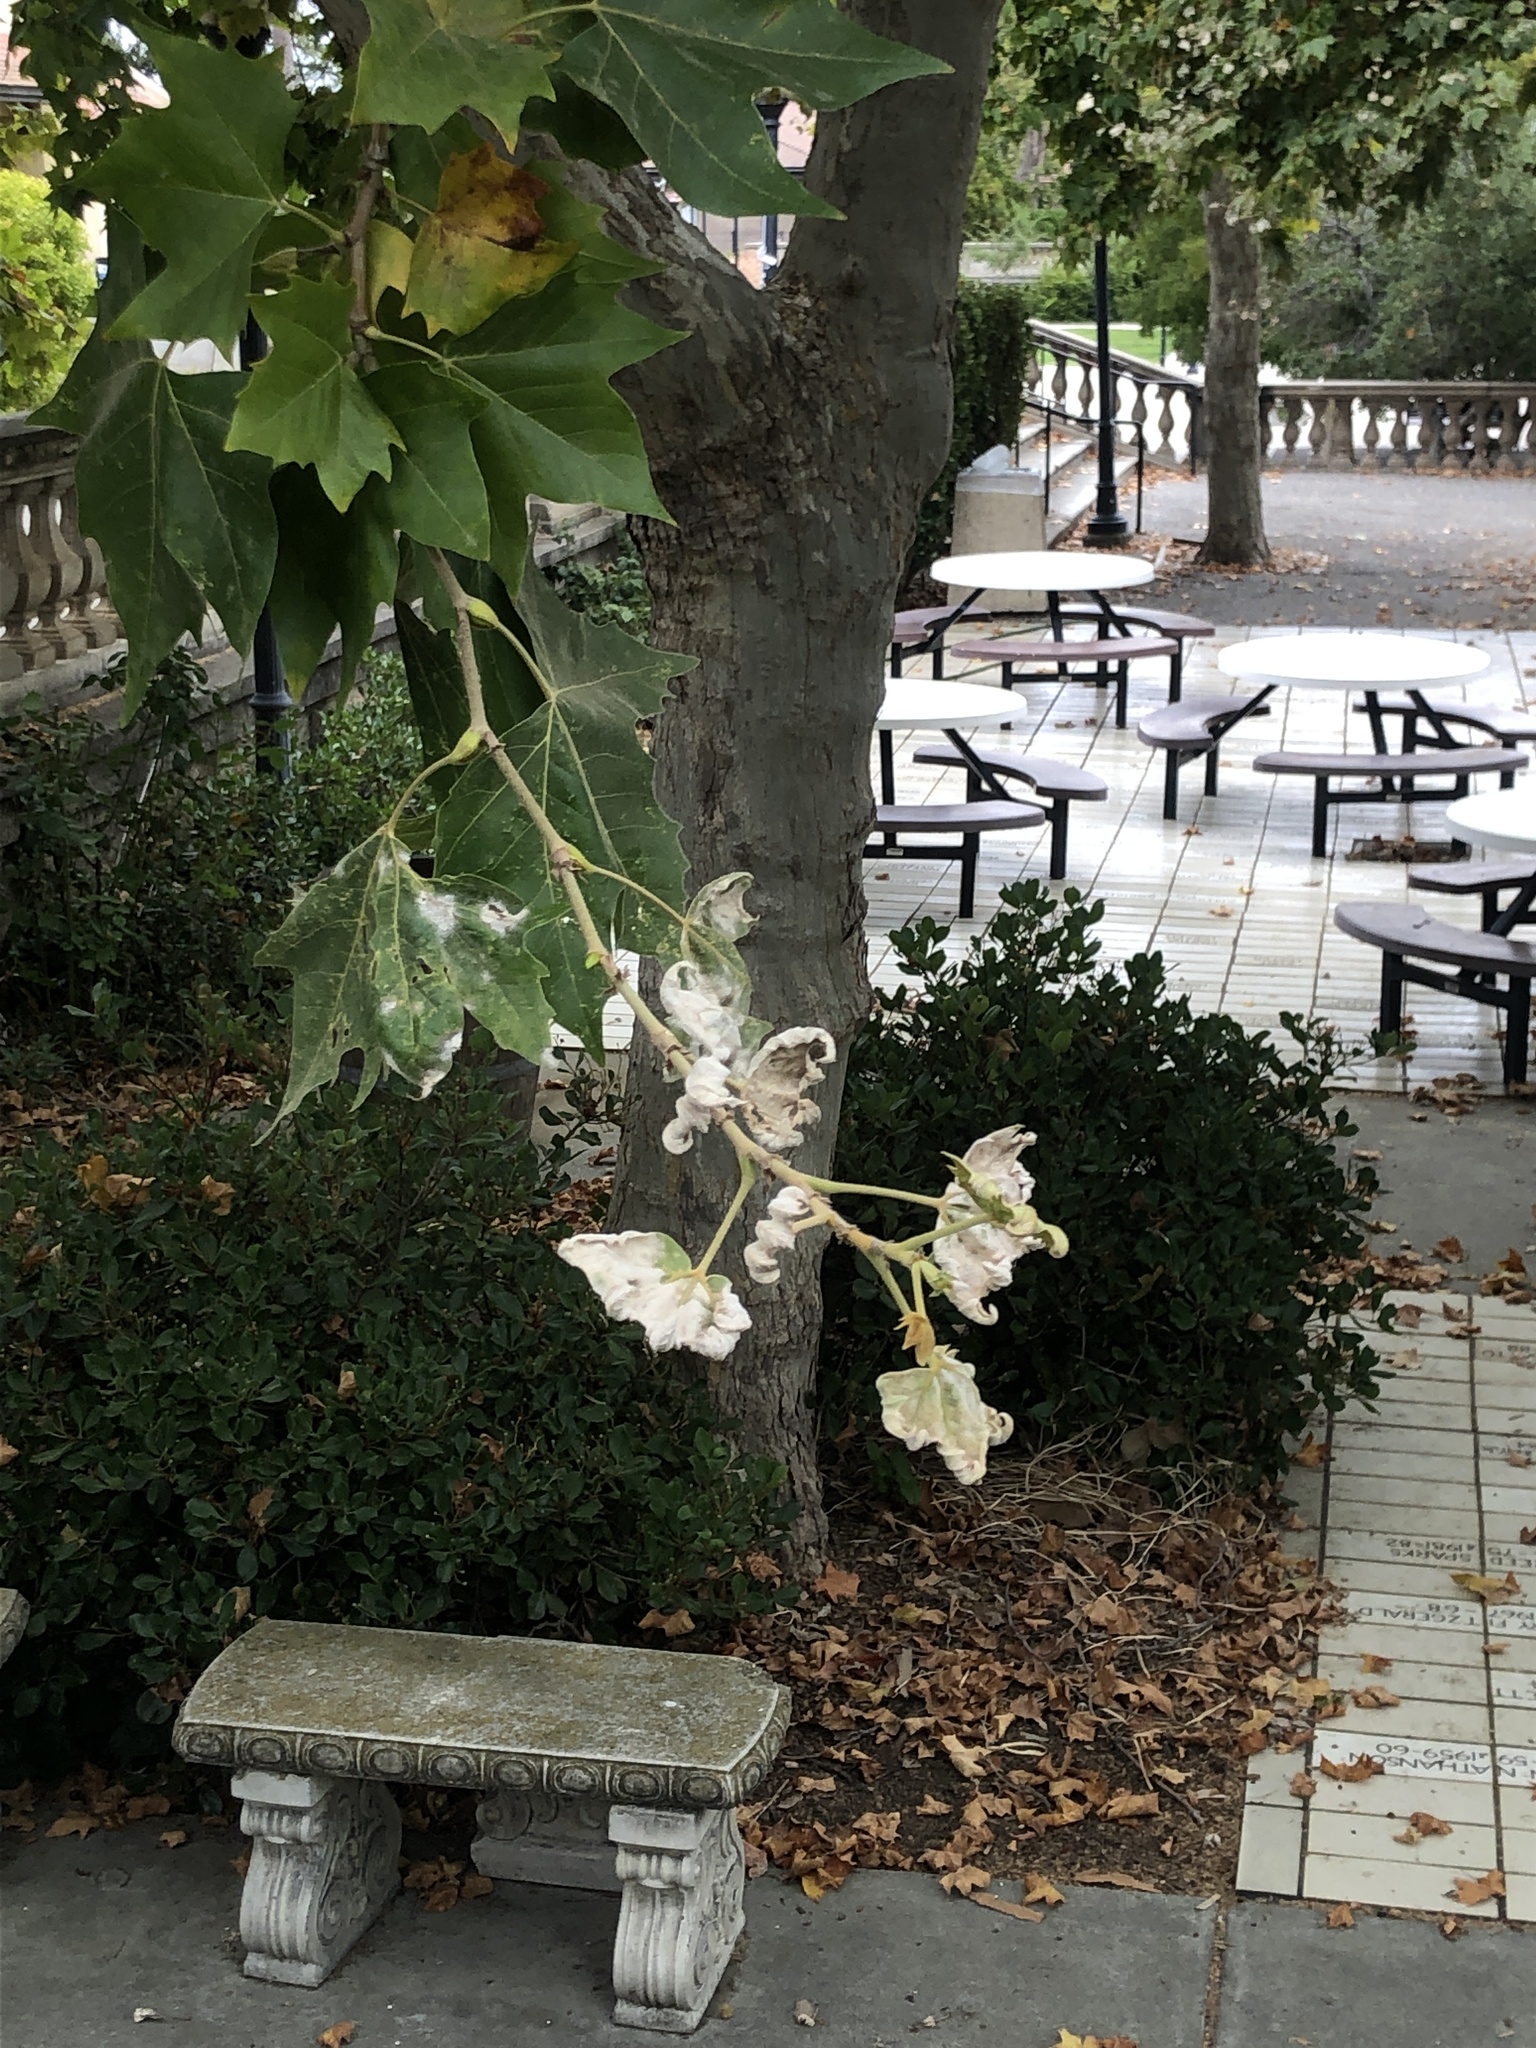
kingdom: Fungi
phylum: Ascomycota
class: Leotiomycetes
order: Helotiales
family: Erysiphaceae
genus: Erysiphe
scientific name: Erysiphe platani
